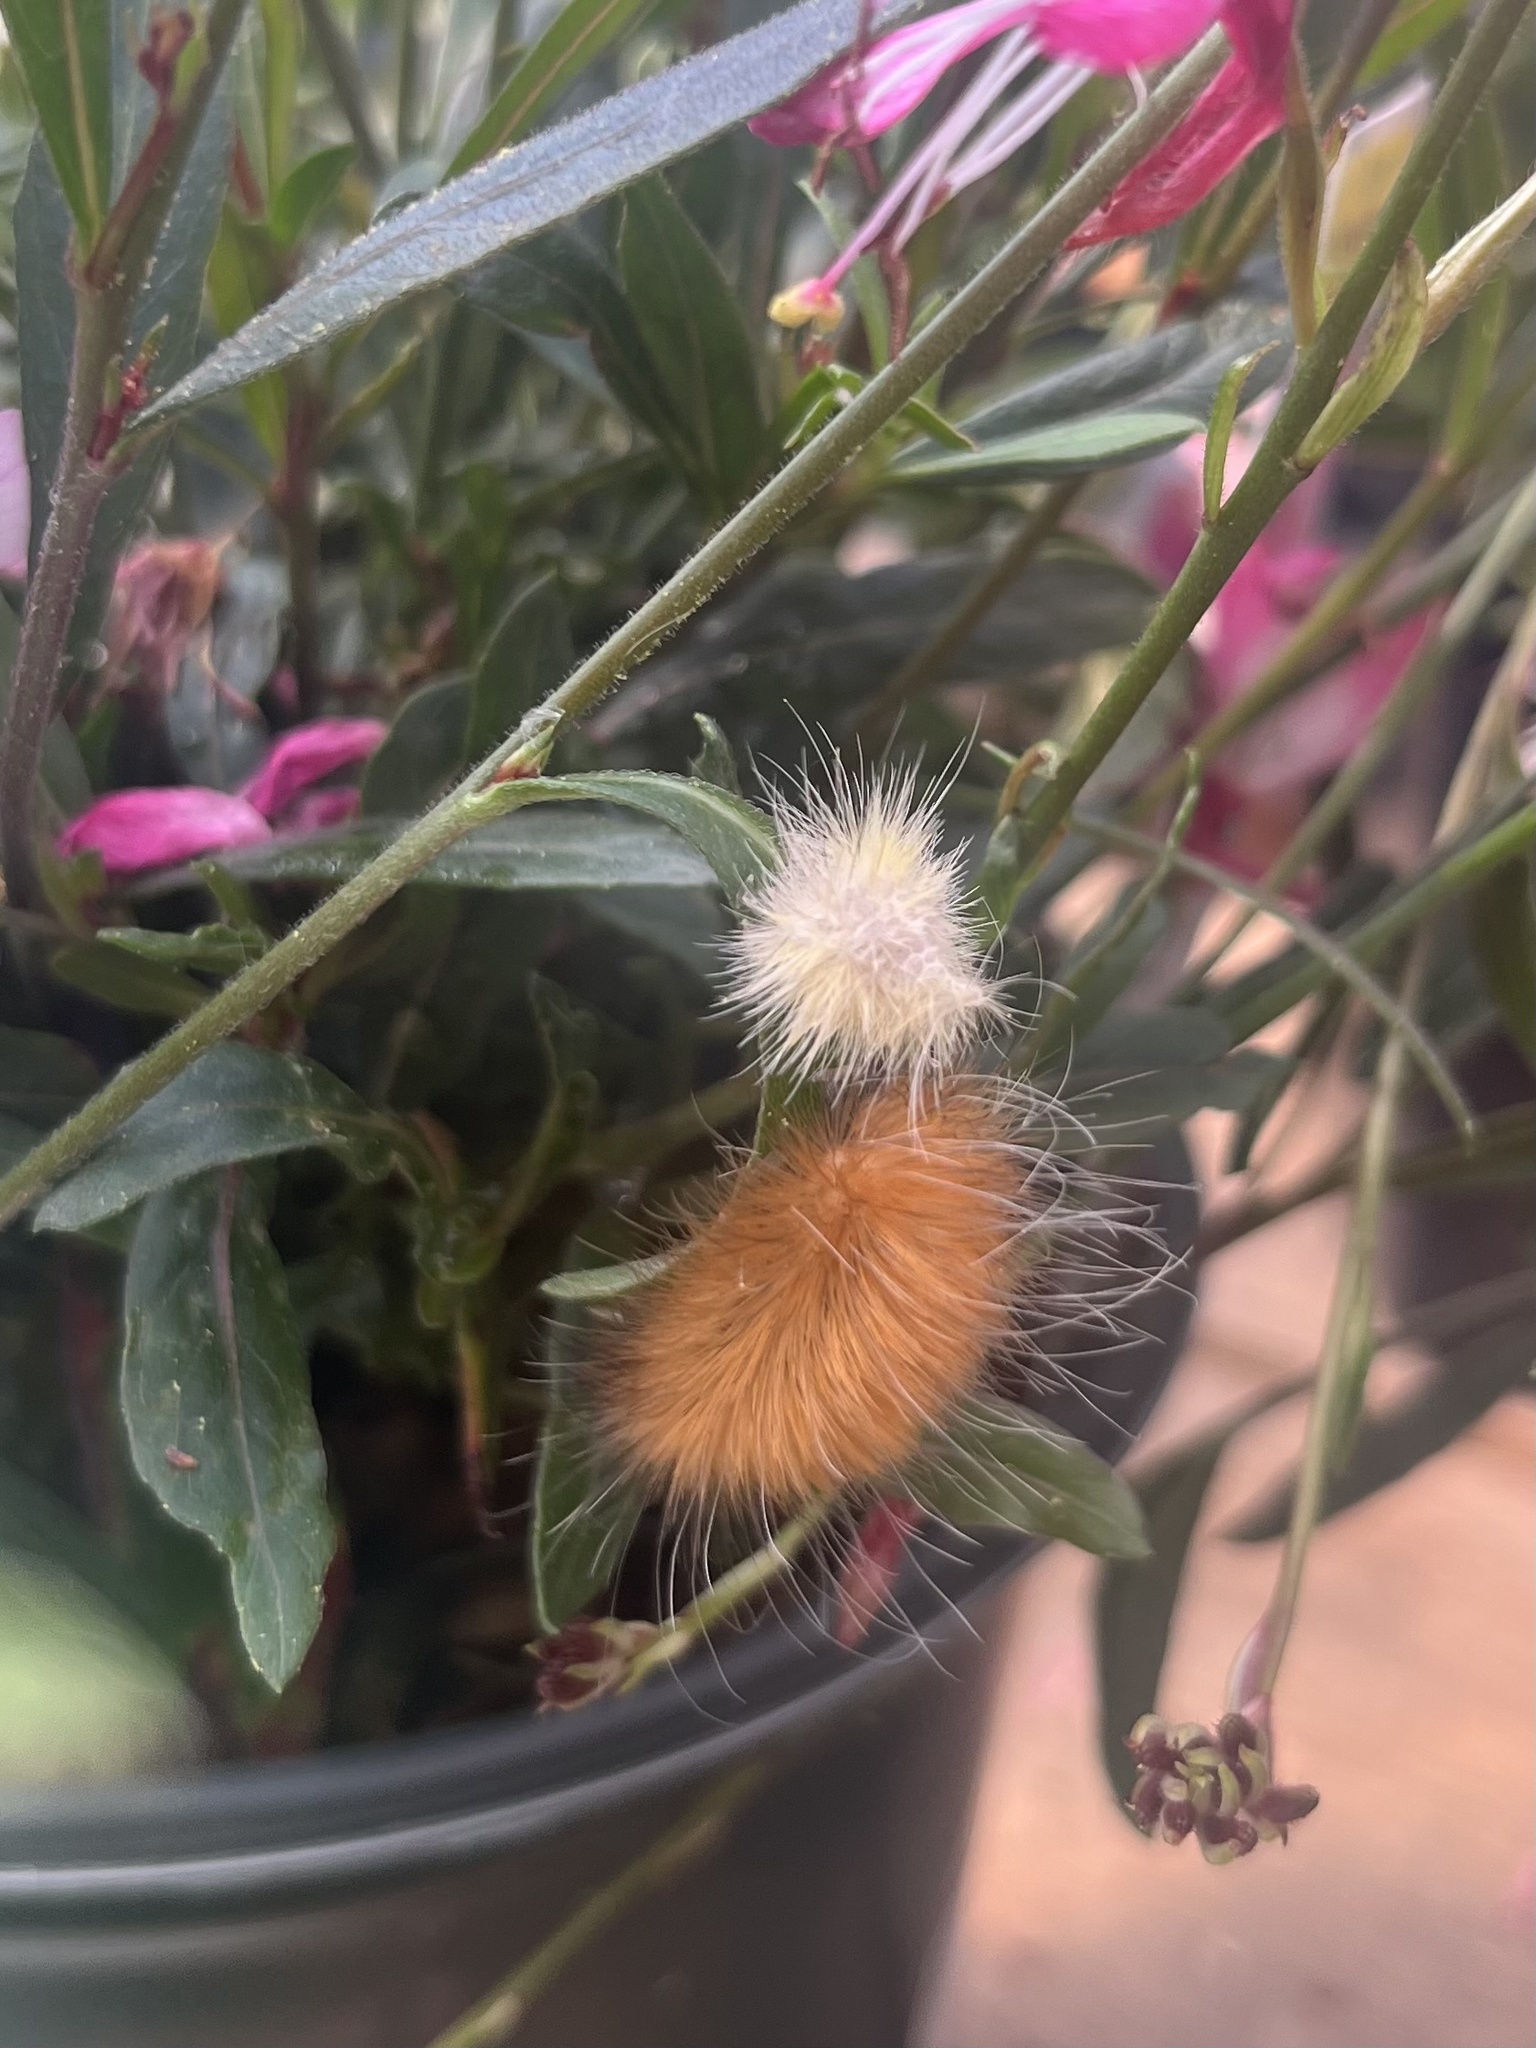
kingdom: Animalia
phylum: Arthropoda
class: Insecta
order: Lepidoptera
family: Erebidae
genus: Spilosoma
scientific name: Spilosoma virginica
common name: Virginia tiger moth
